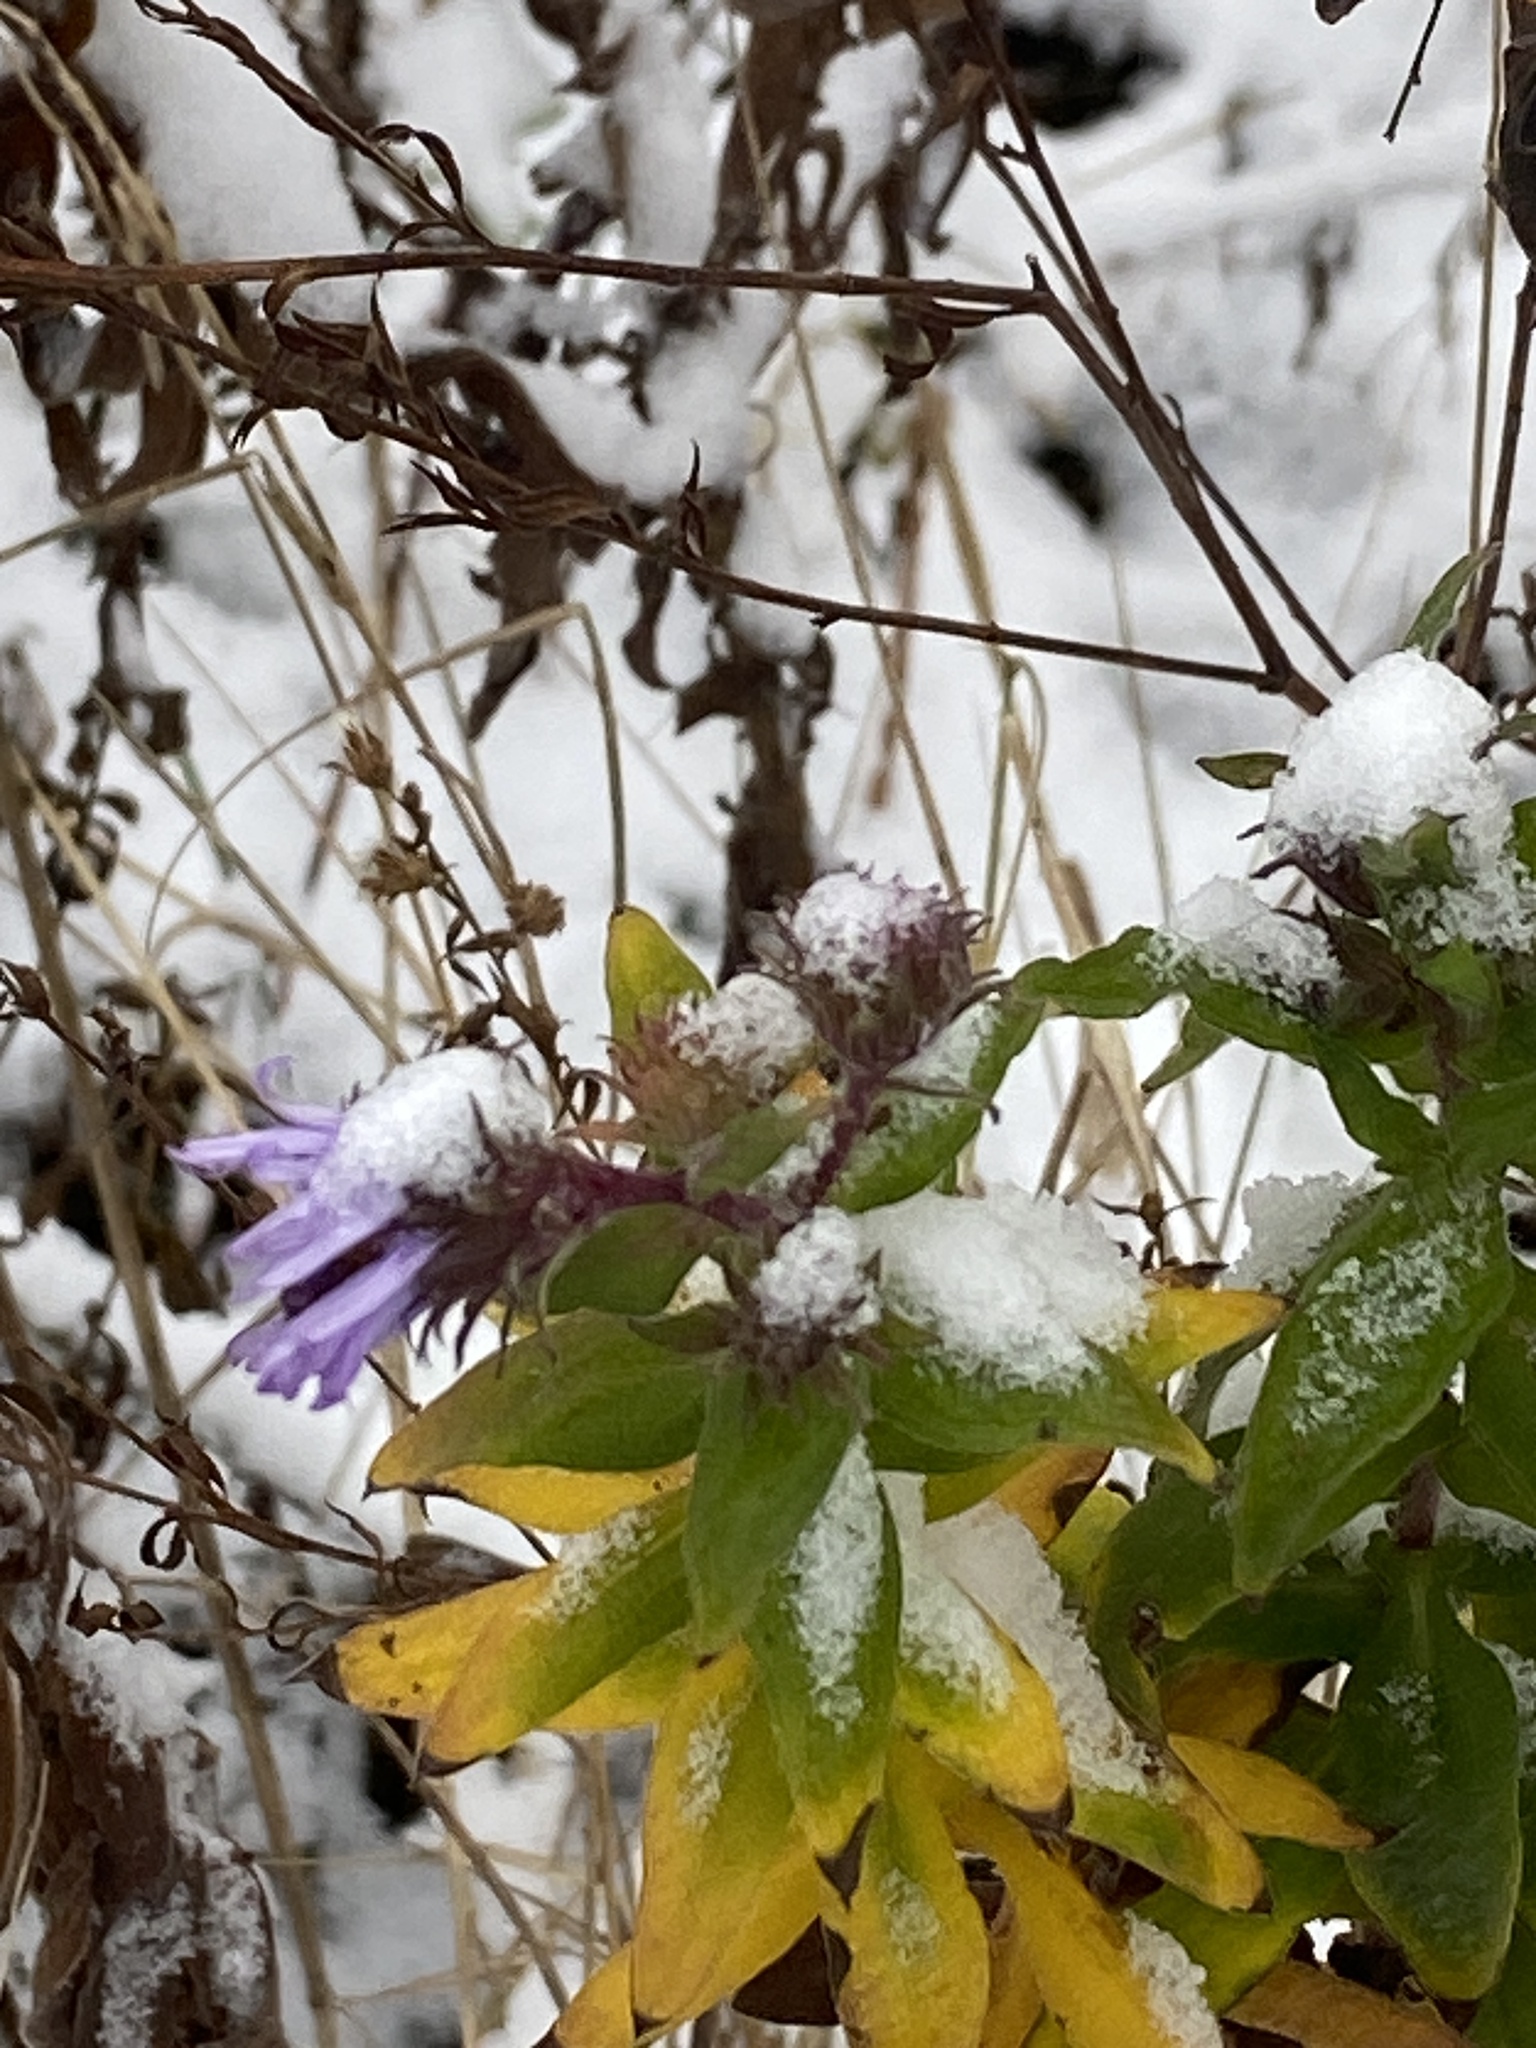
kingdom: Plantae
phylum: Tracheophyta
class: Magnoliopsida
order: Asterales
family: Asteraceae
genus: Symphyotrichum
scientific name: Symphyotrichum novae-angliae
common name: Michaelmas daisy
